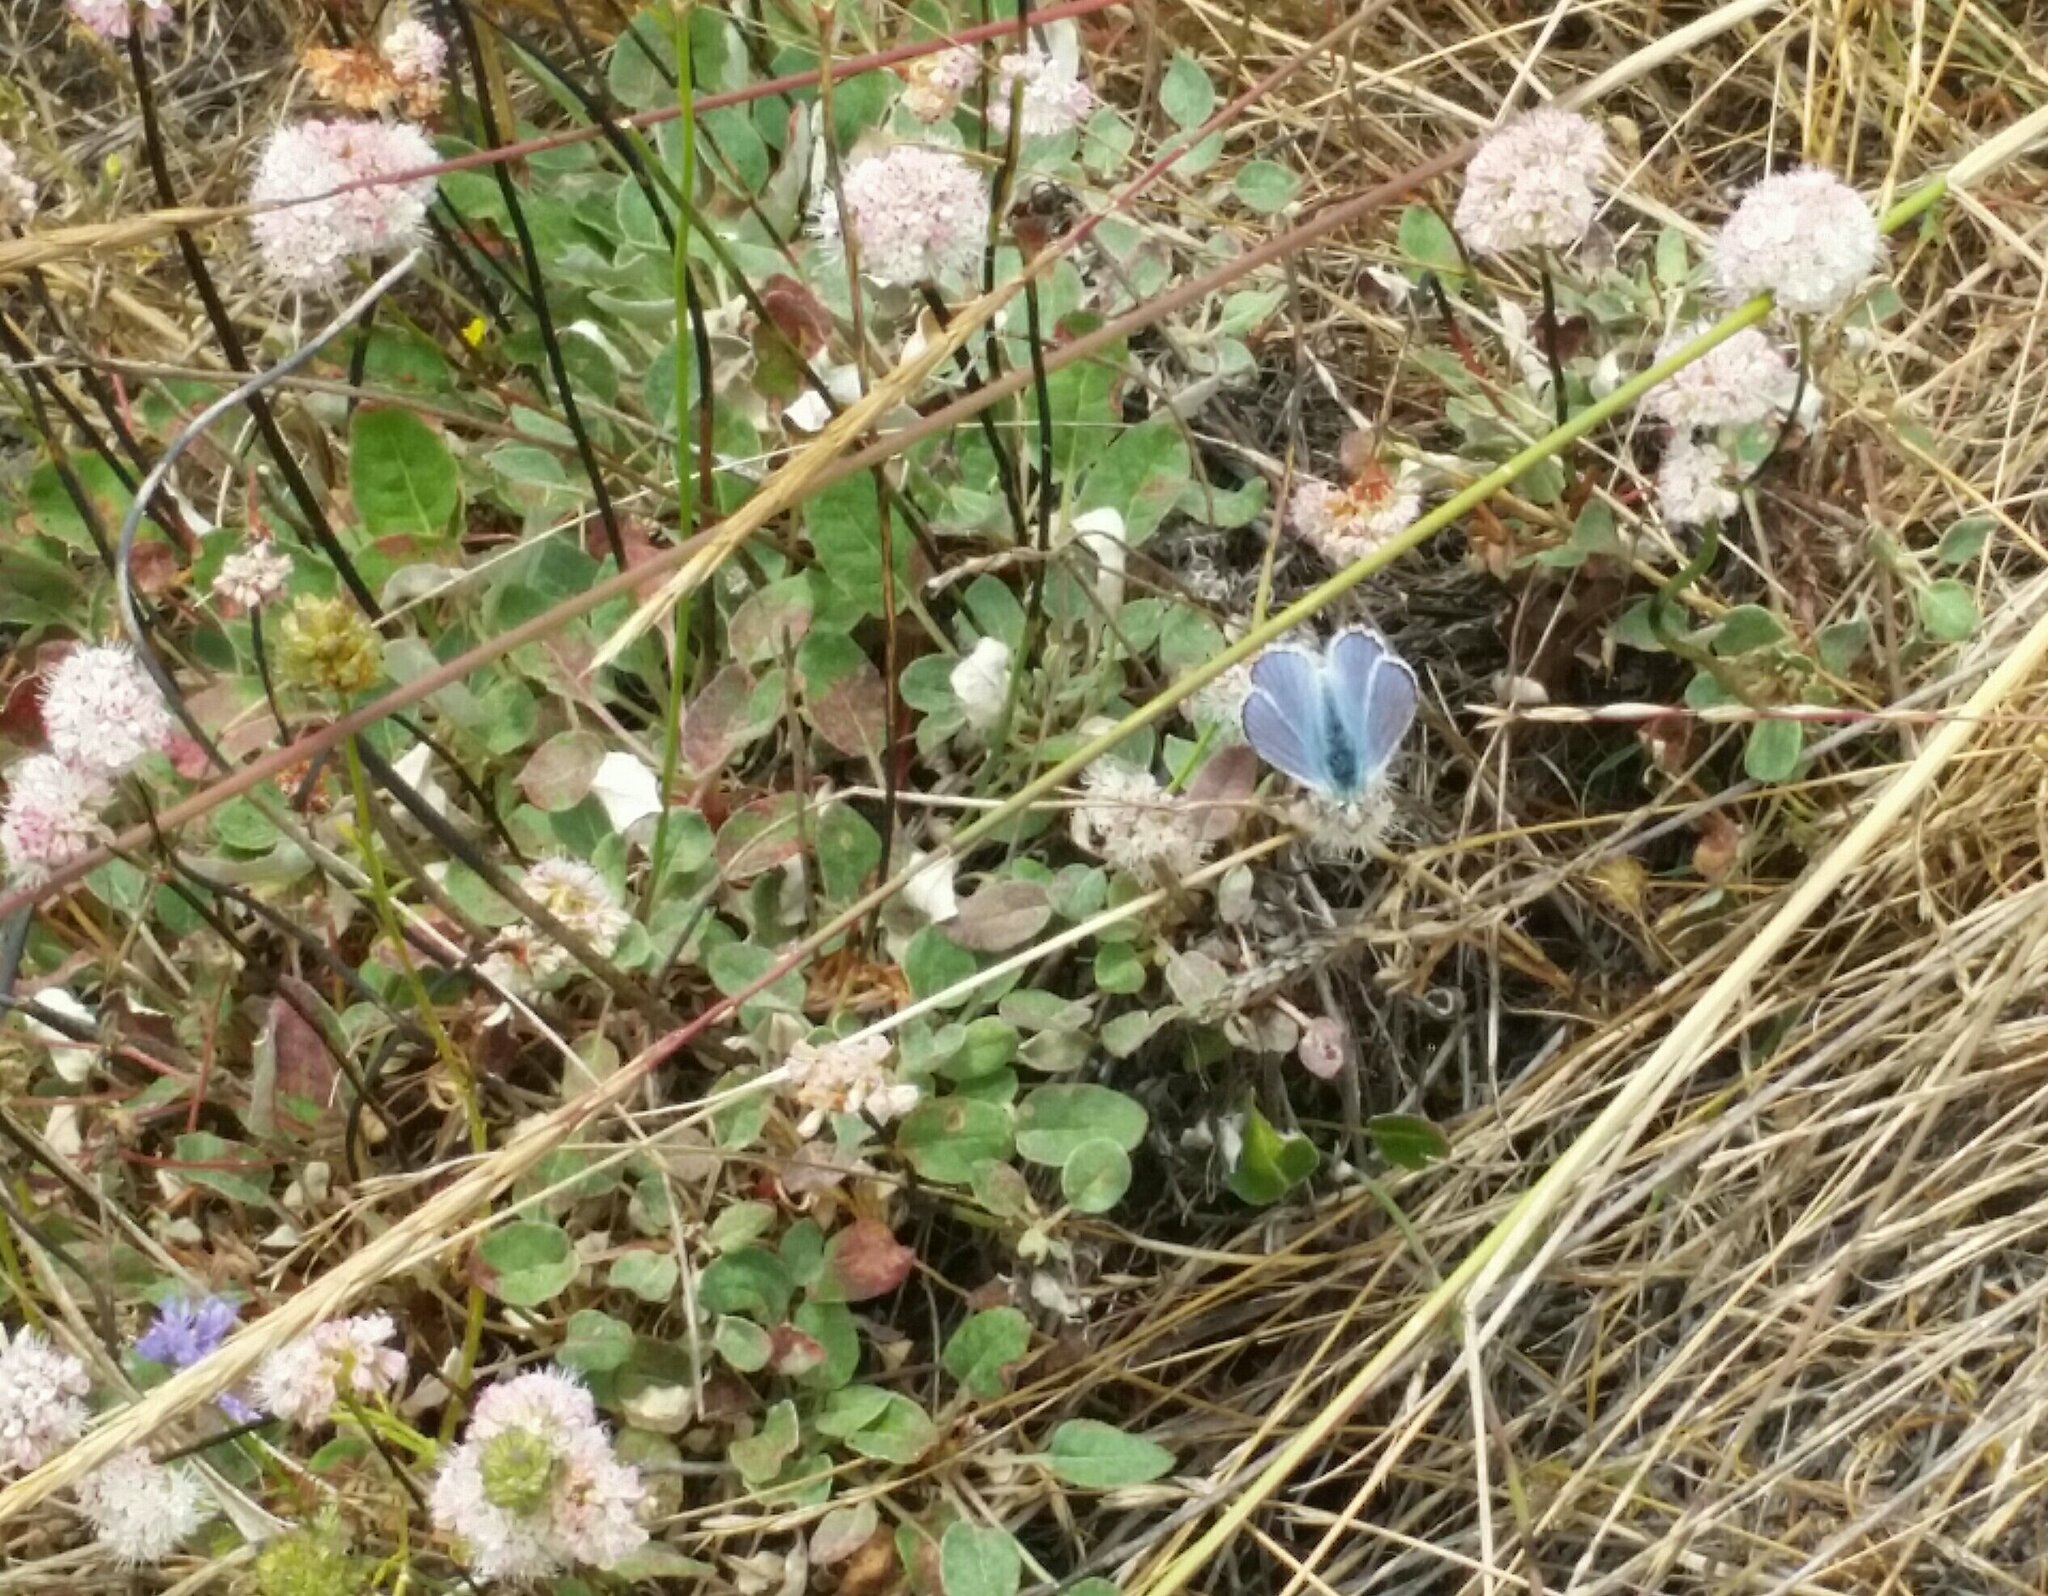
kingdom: Plantae
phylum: Tracheophyta
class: Magnoliopsida
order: Caryophyllales
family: Polygonaceae
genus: Eriogonum
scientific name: Eriogonum nudum
